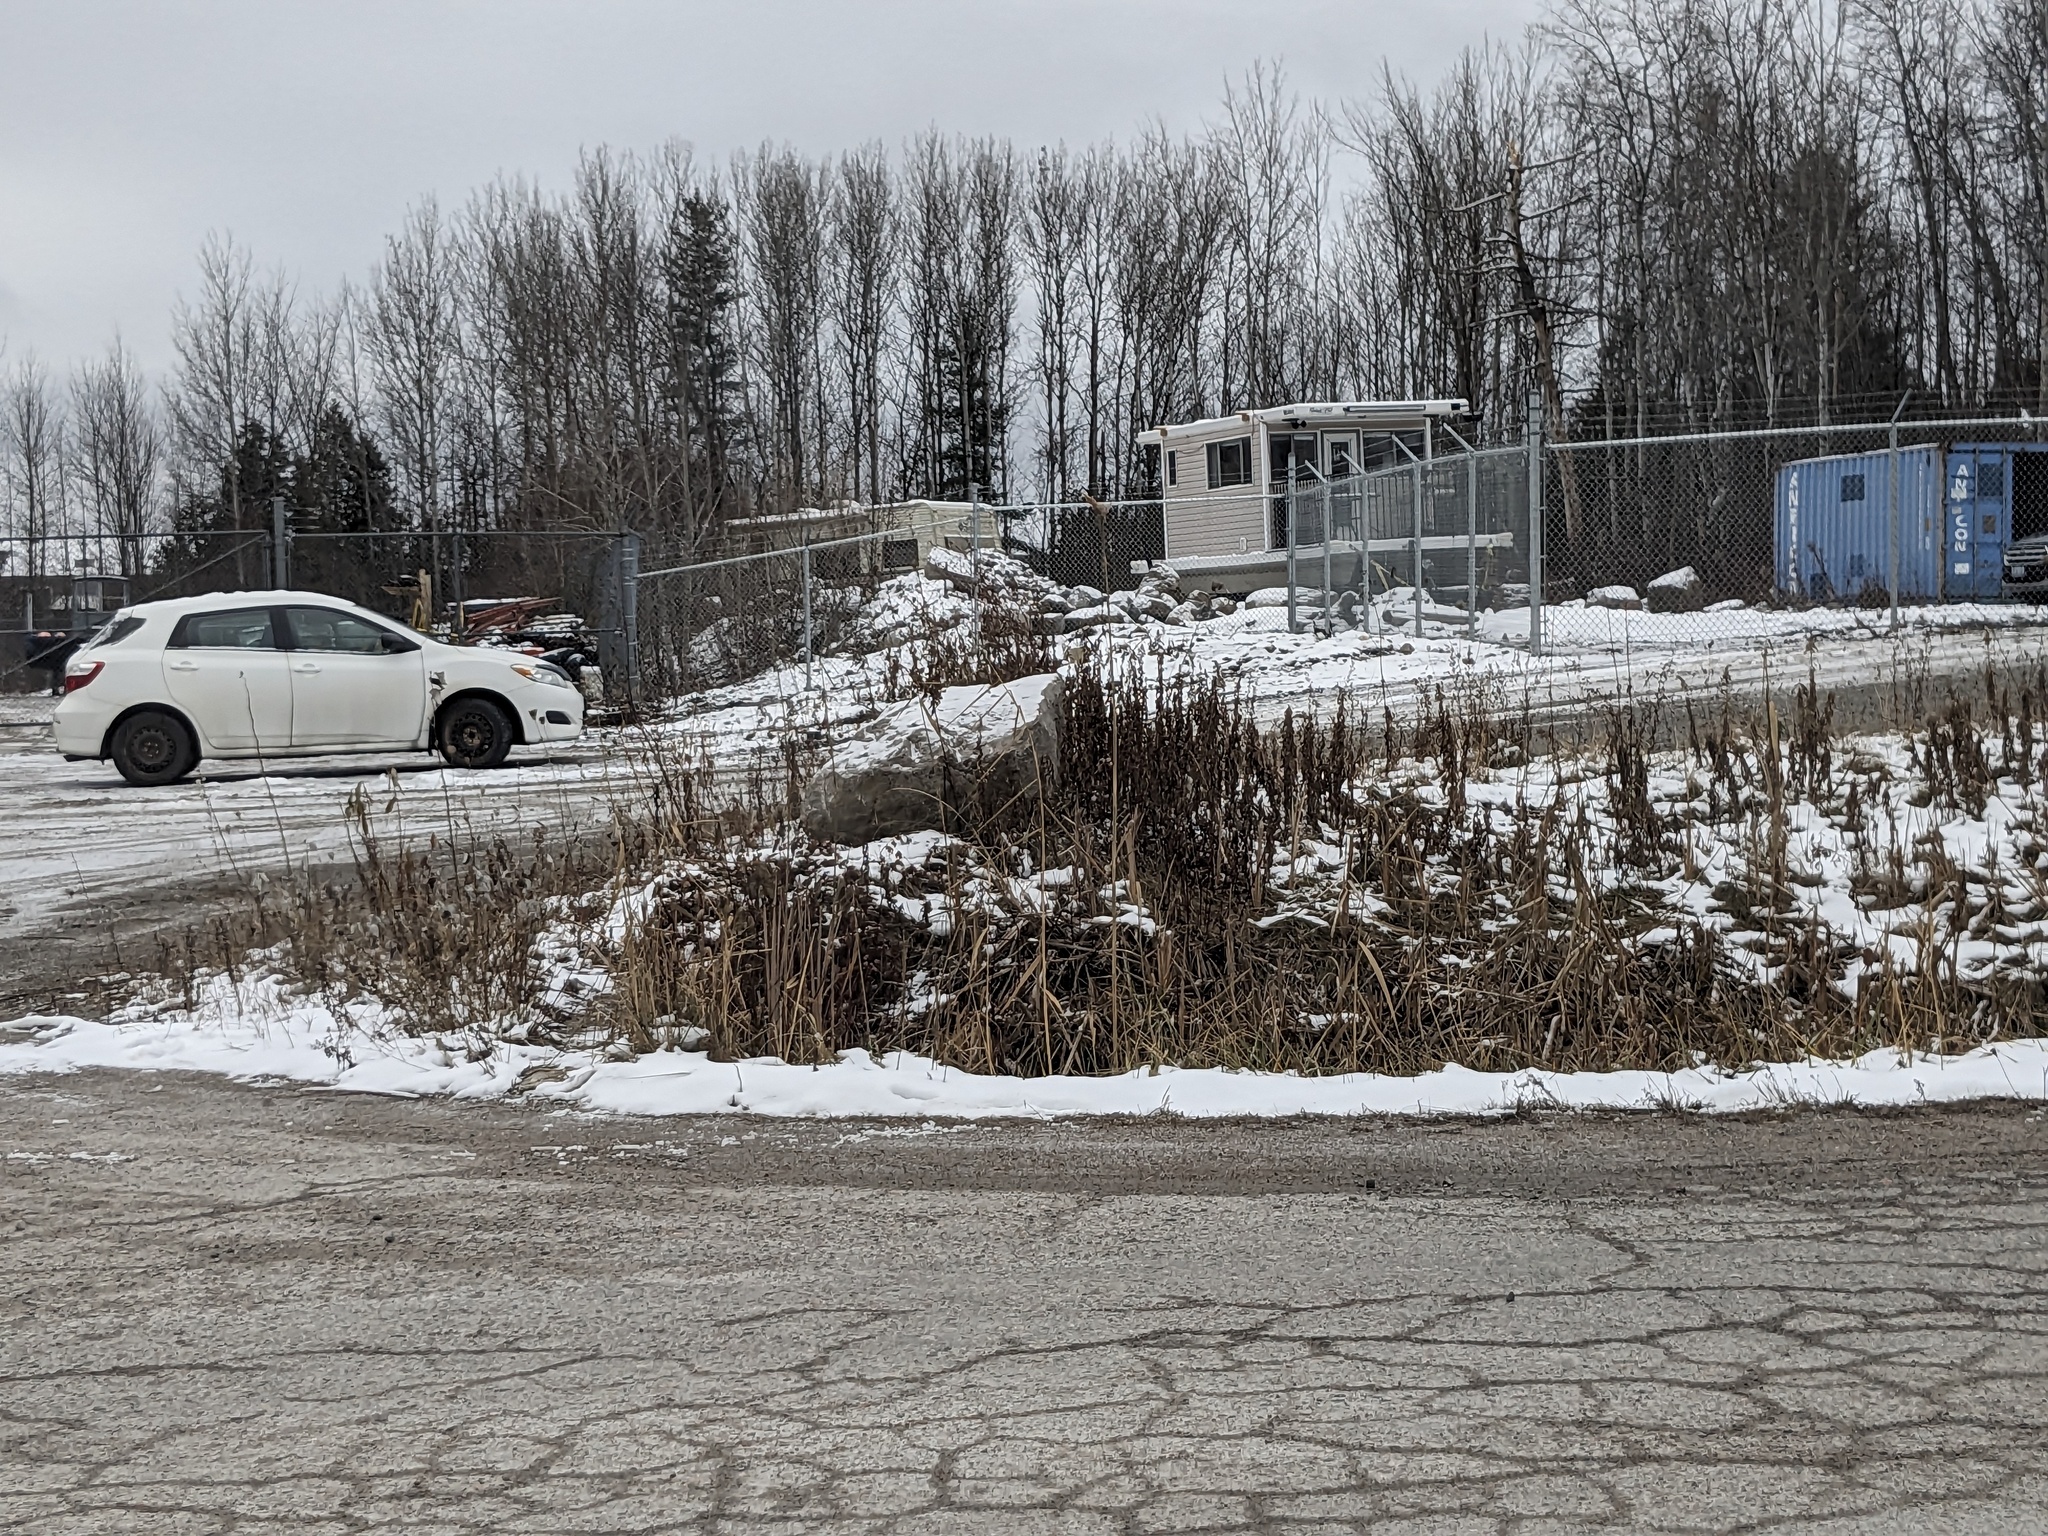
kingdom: Plantae
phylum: Tracheophyta
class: Liliopsida
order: Poales
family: Poaceae
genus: Phragmites
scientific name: Phragmites australis
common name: Common reed
